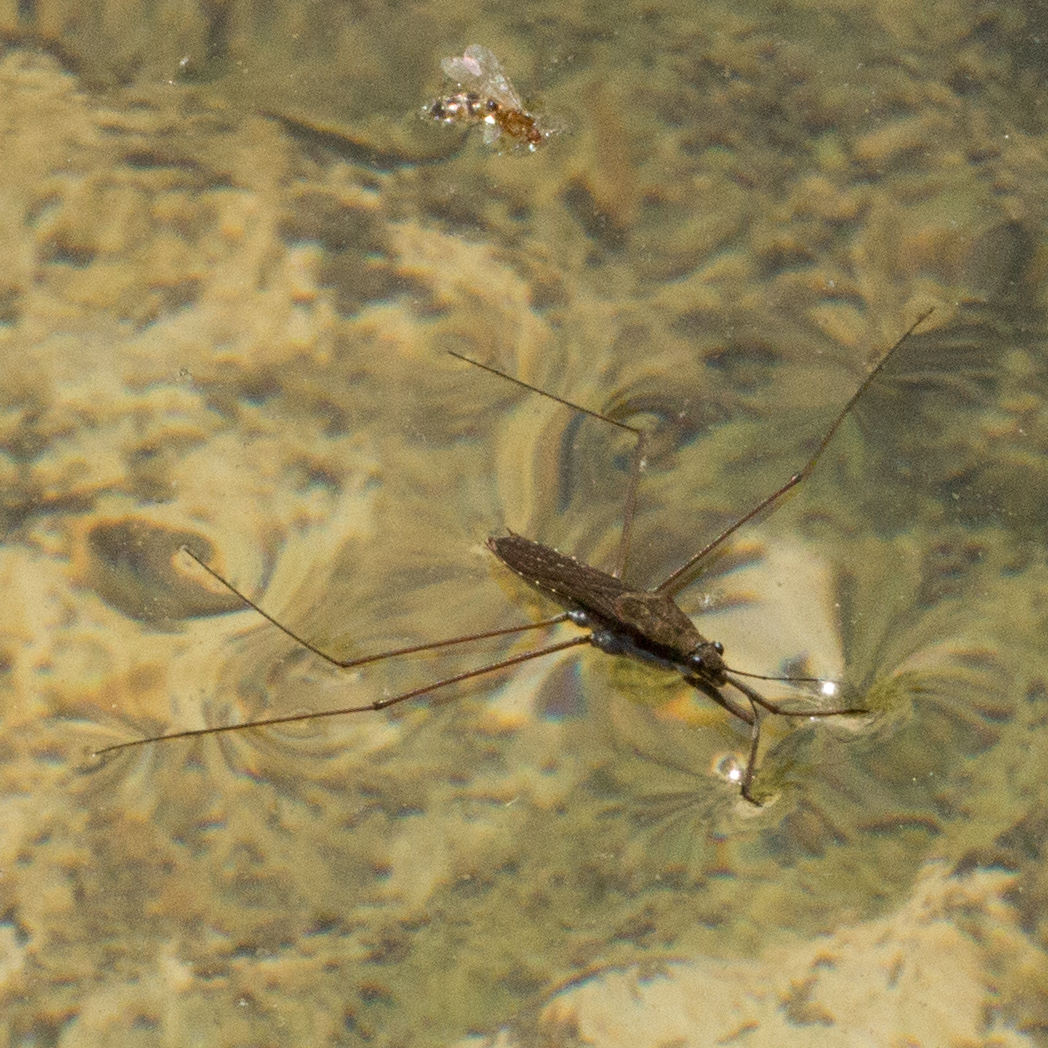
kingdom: Animalia
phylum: Arthropoda
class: Insecta
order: Hemiptera
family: Gerridae
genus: Aquarius
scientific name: Aquarius remigis
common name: Common water strider
